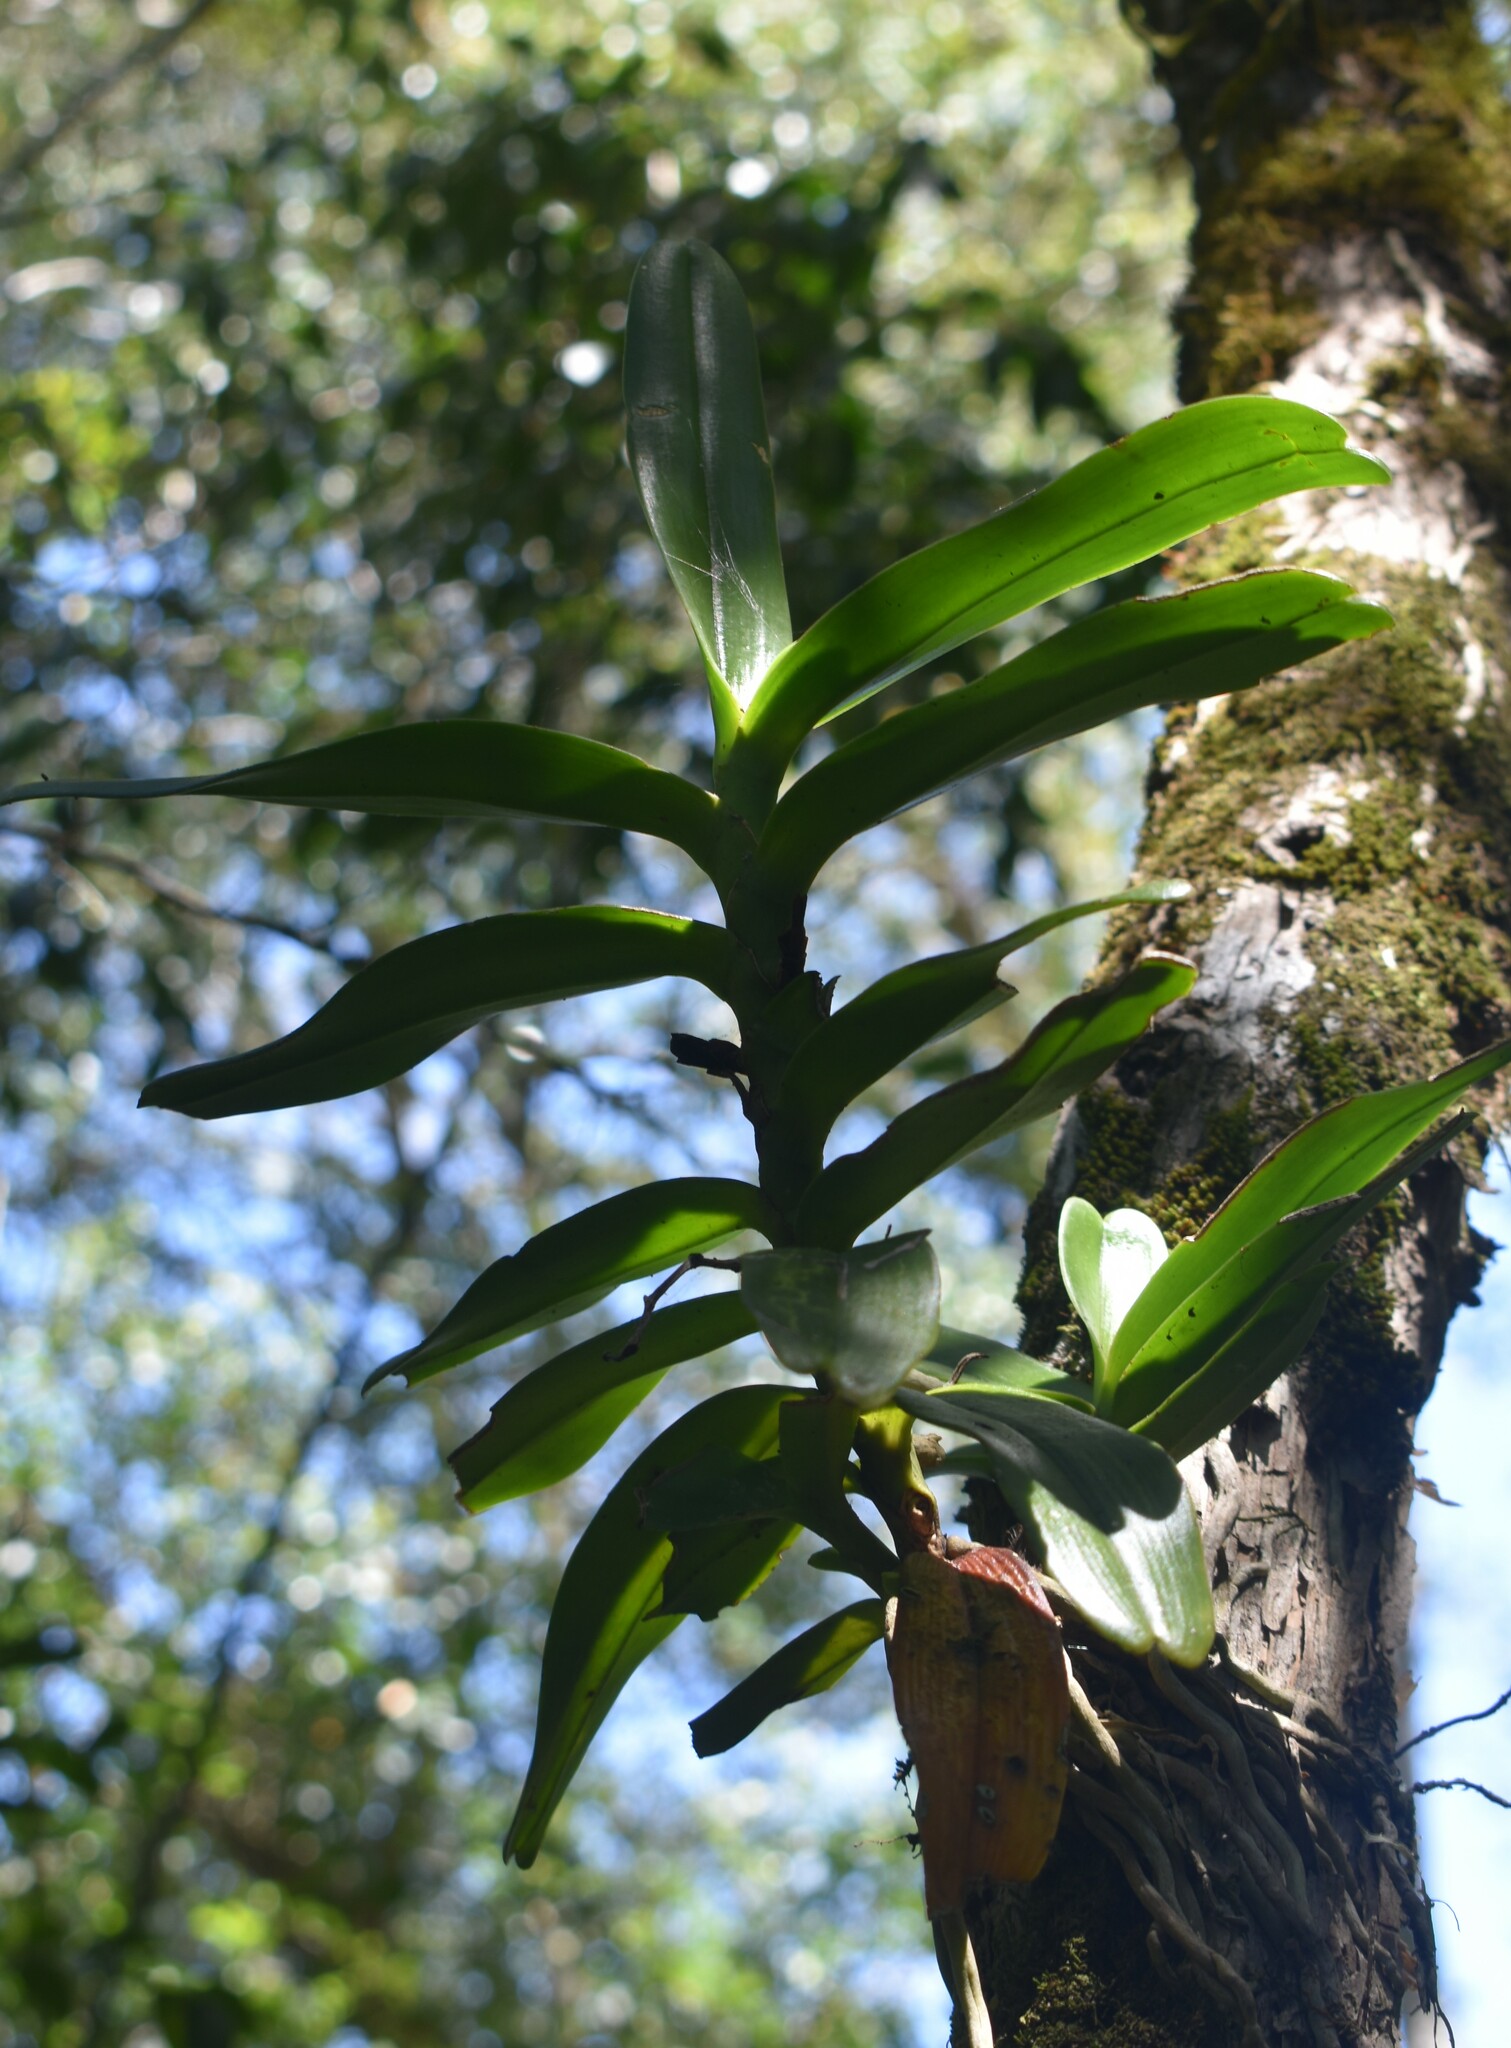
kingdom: Plantae
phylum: Tracheophyta
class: Liliopsida
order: Asparagales
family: Orchidaceae
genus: Cyrtorchis
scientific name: Cyrtorchis arcuata
